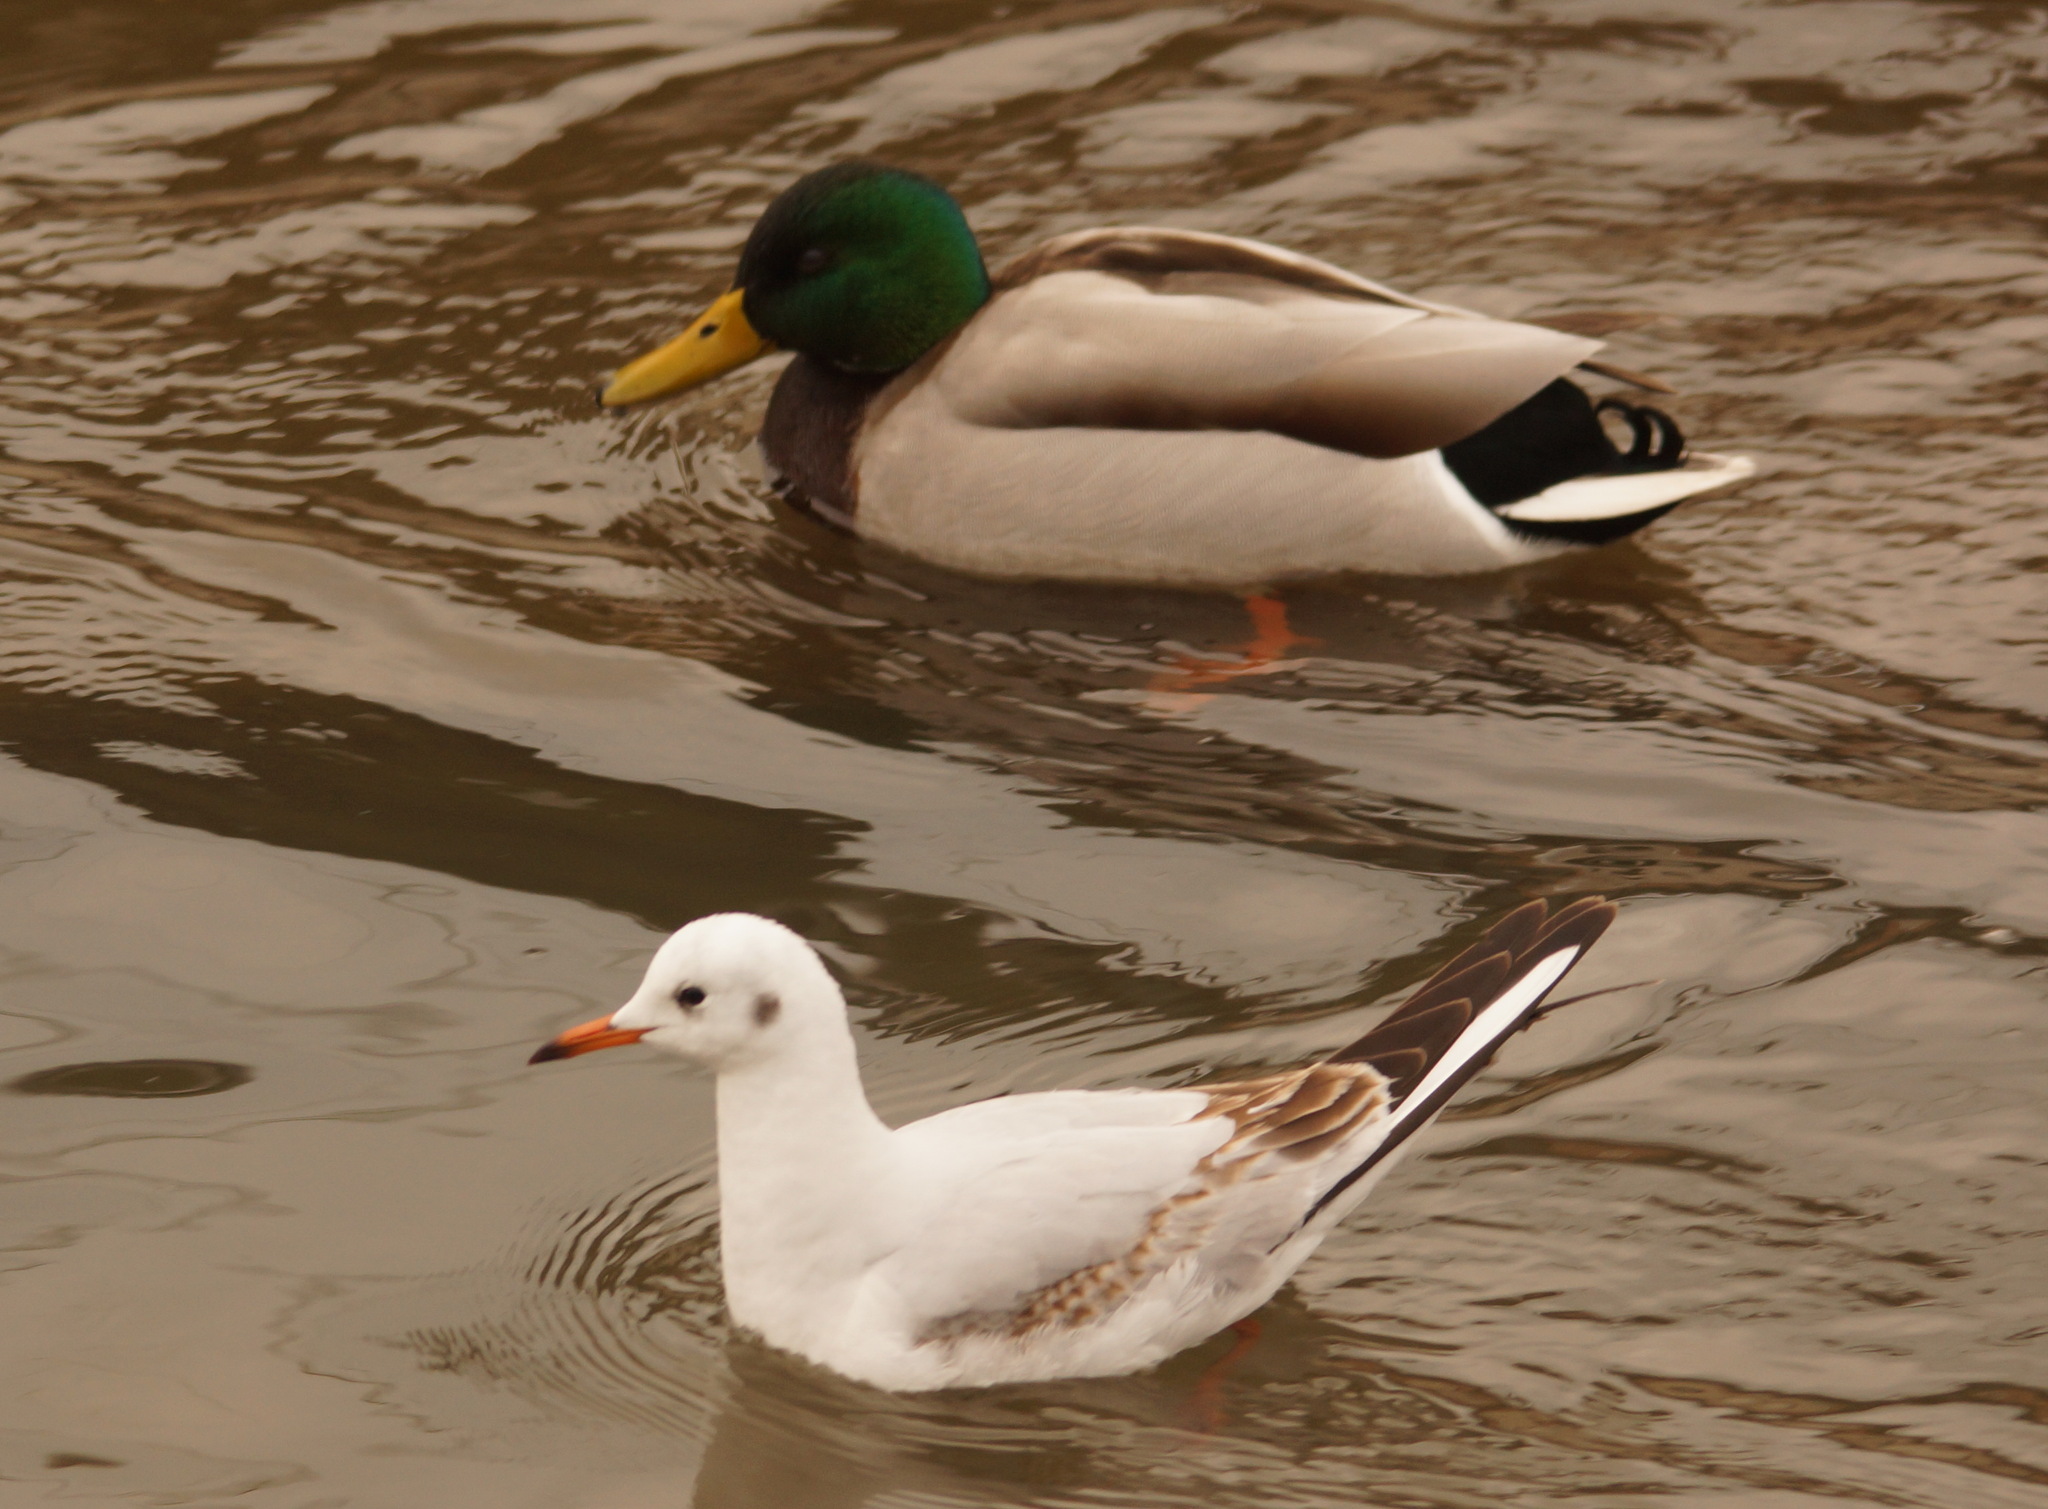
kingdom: Animalia
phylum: Chordata
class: Aves
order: Charadriiformes
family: Laridae
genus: Chroicocephalus
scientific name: Chroicocephalus ridibundus
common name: Black-headed gull
